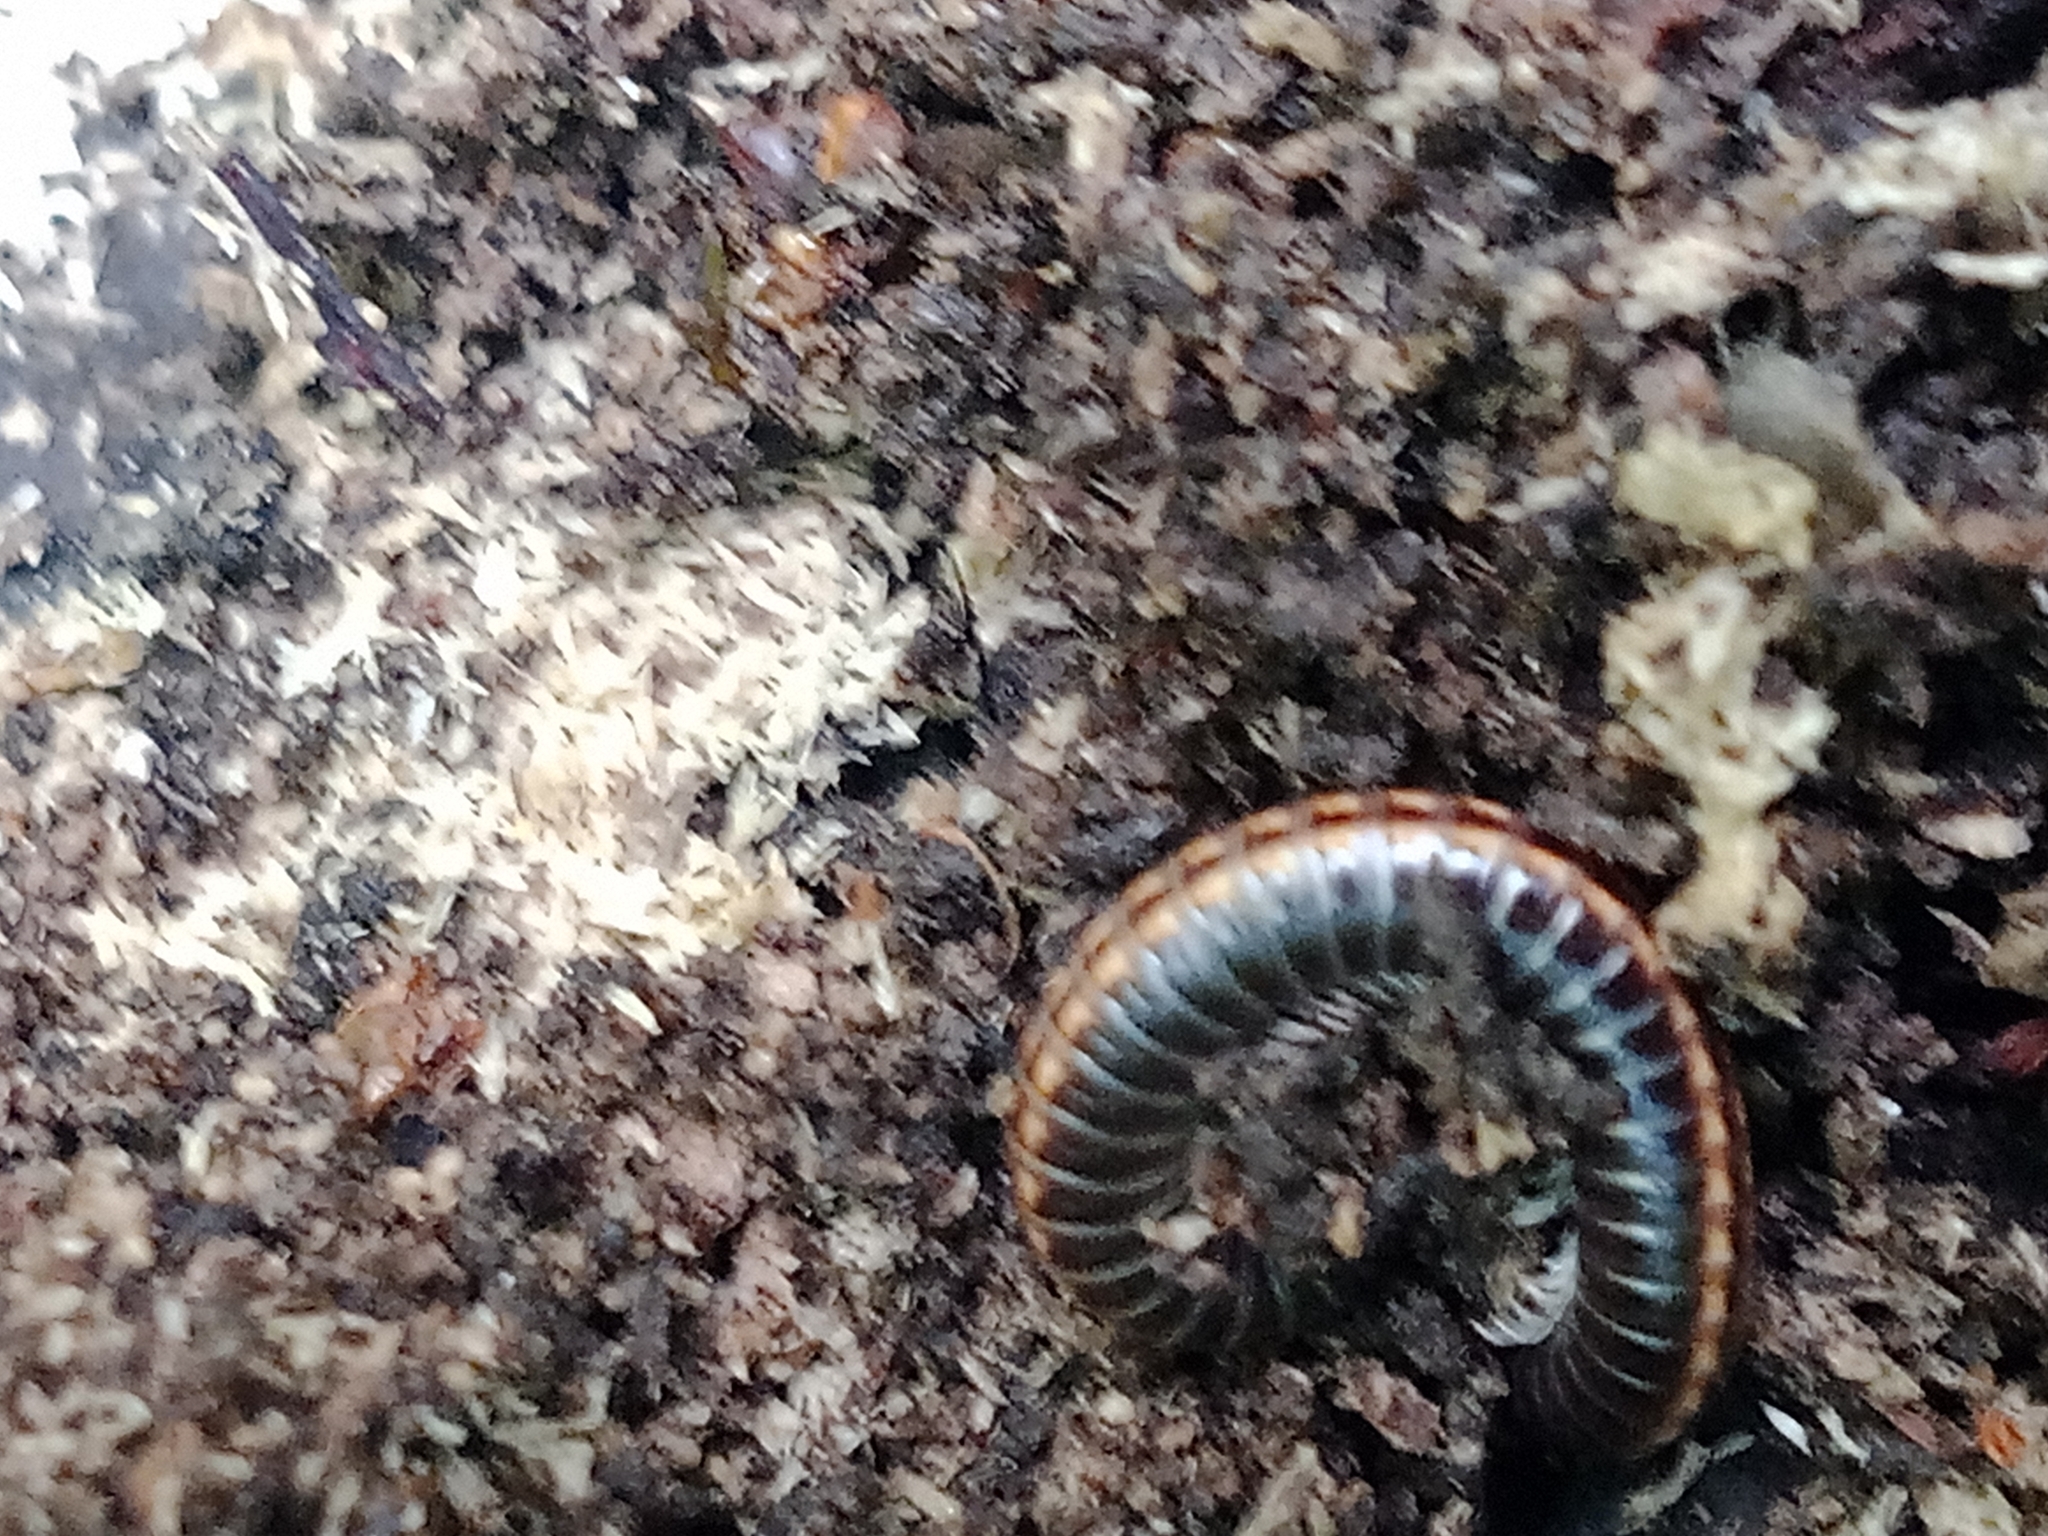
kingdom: Animalia
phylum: Arthropoda
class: Diplopoda
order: Julida
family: Julidae
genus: Ommatoiulus
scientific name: Ommatoiulus sabulosus
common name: Striped millipede
